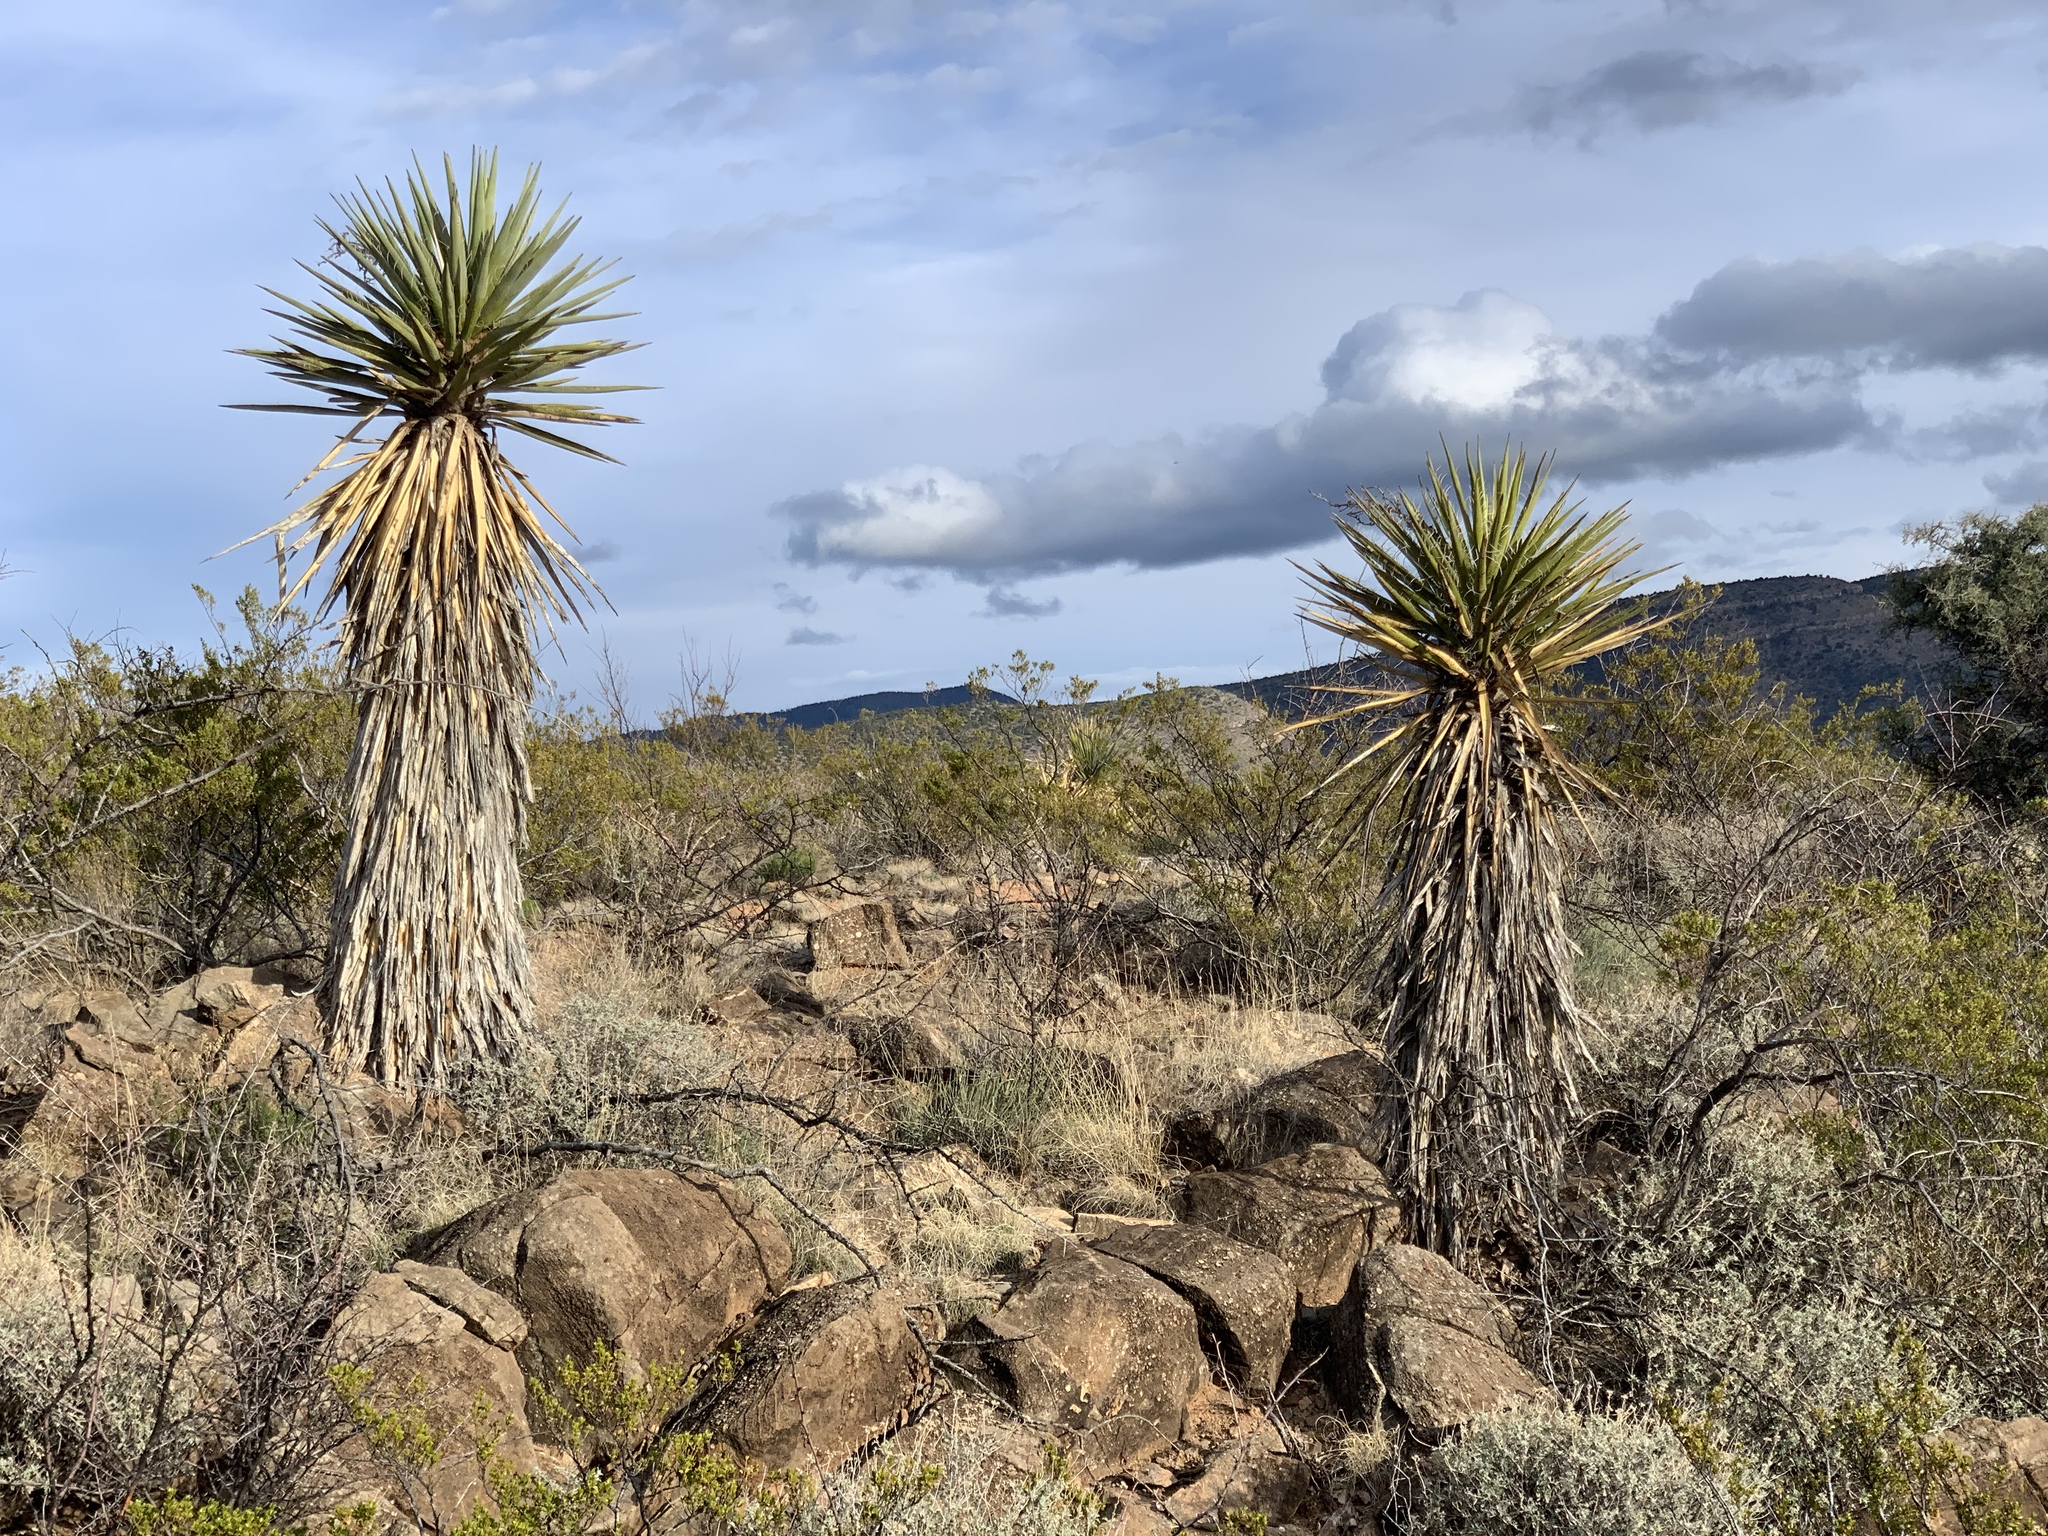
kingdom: Plantae
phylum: Tracheophyta
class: Liliopsida
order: Asparagales
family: Asparagaceae
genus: Yucca
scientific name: Yucca treculiana
